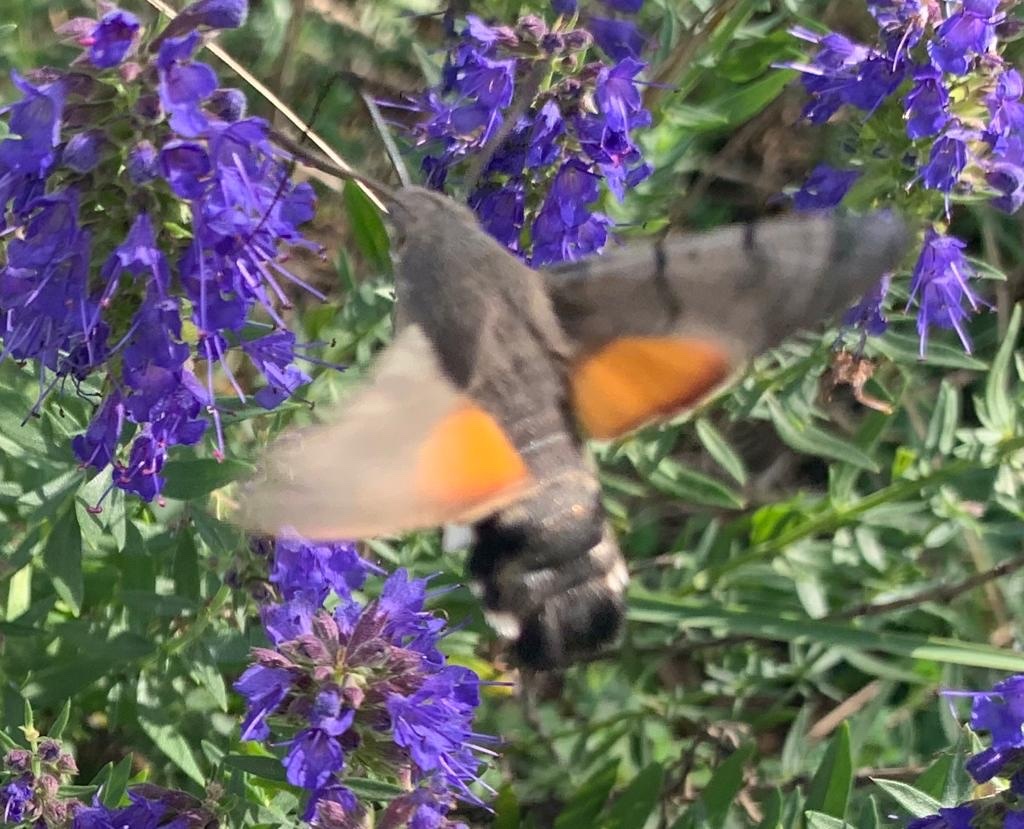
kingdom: Animalia
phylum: Arthropoda
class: Insecta
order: Lepidoptera
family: Sphingidae
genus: Macroglossum
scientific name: Macroglossum stellatarum
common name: Humming-bird hawk-moth
